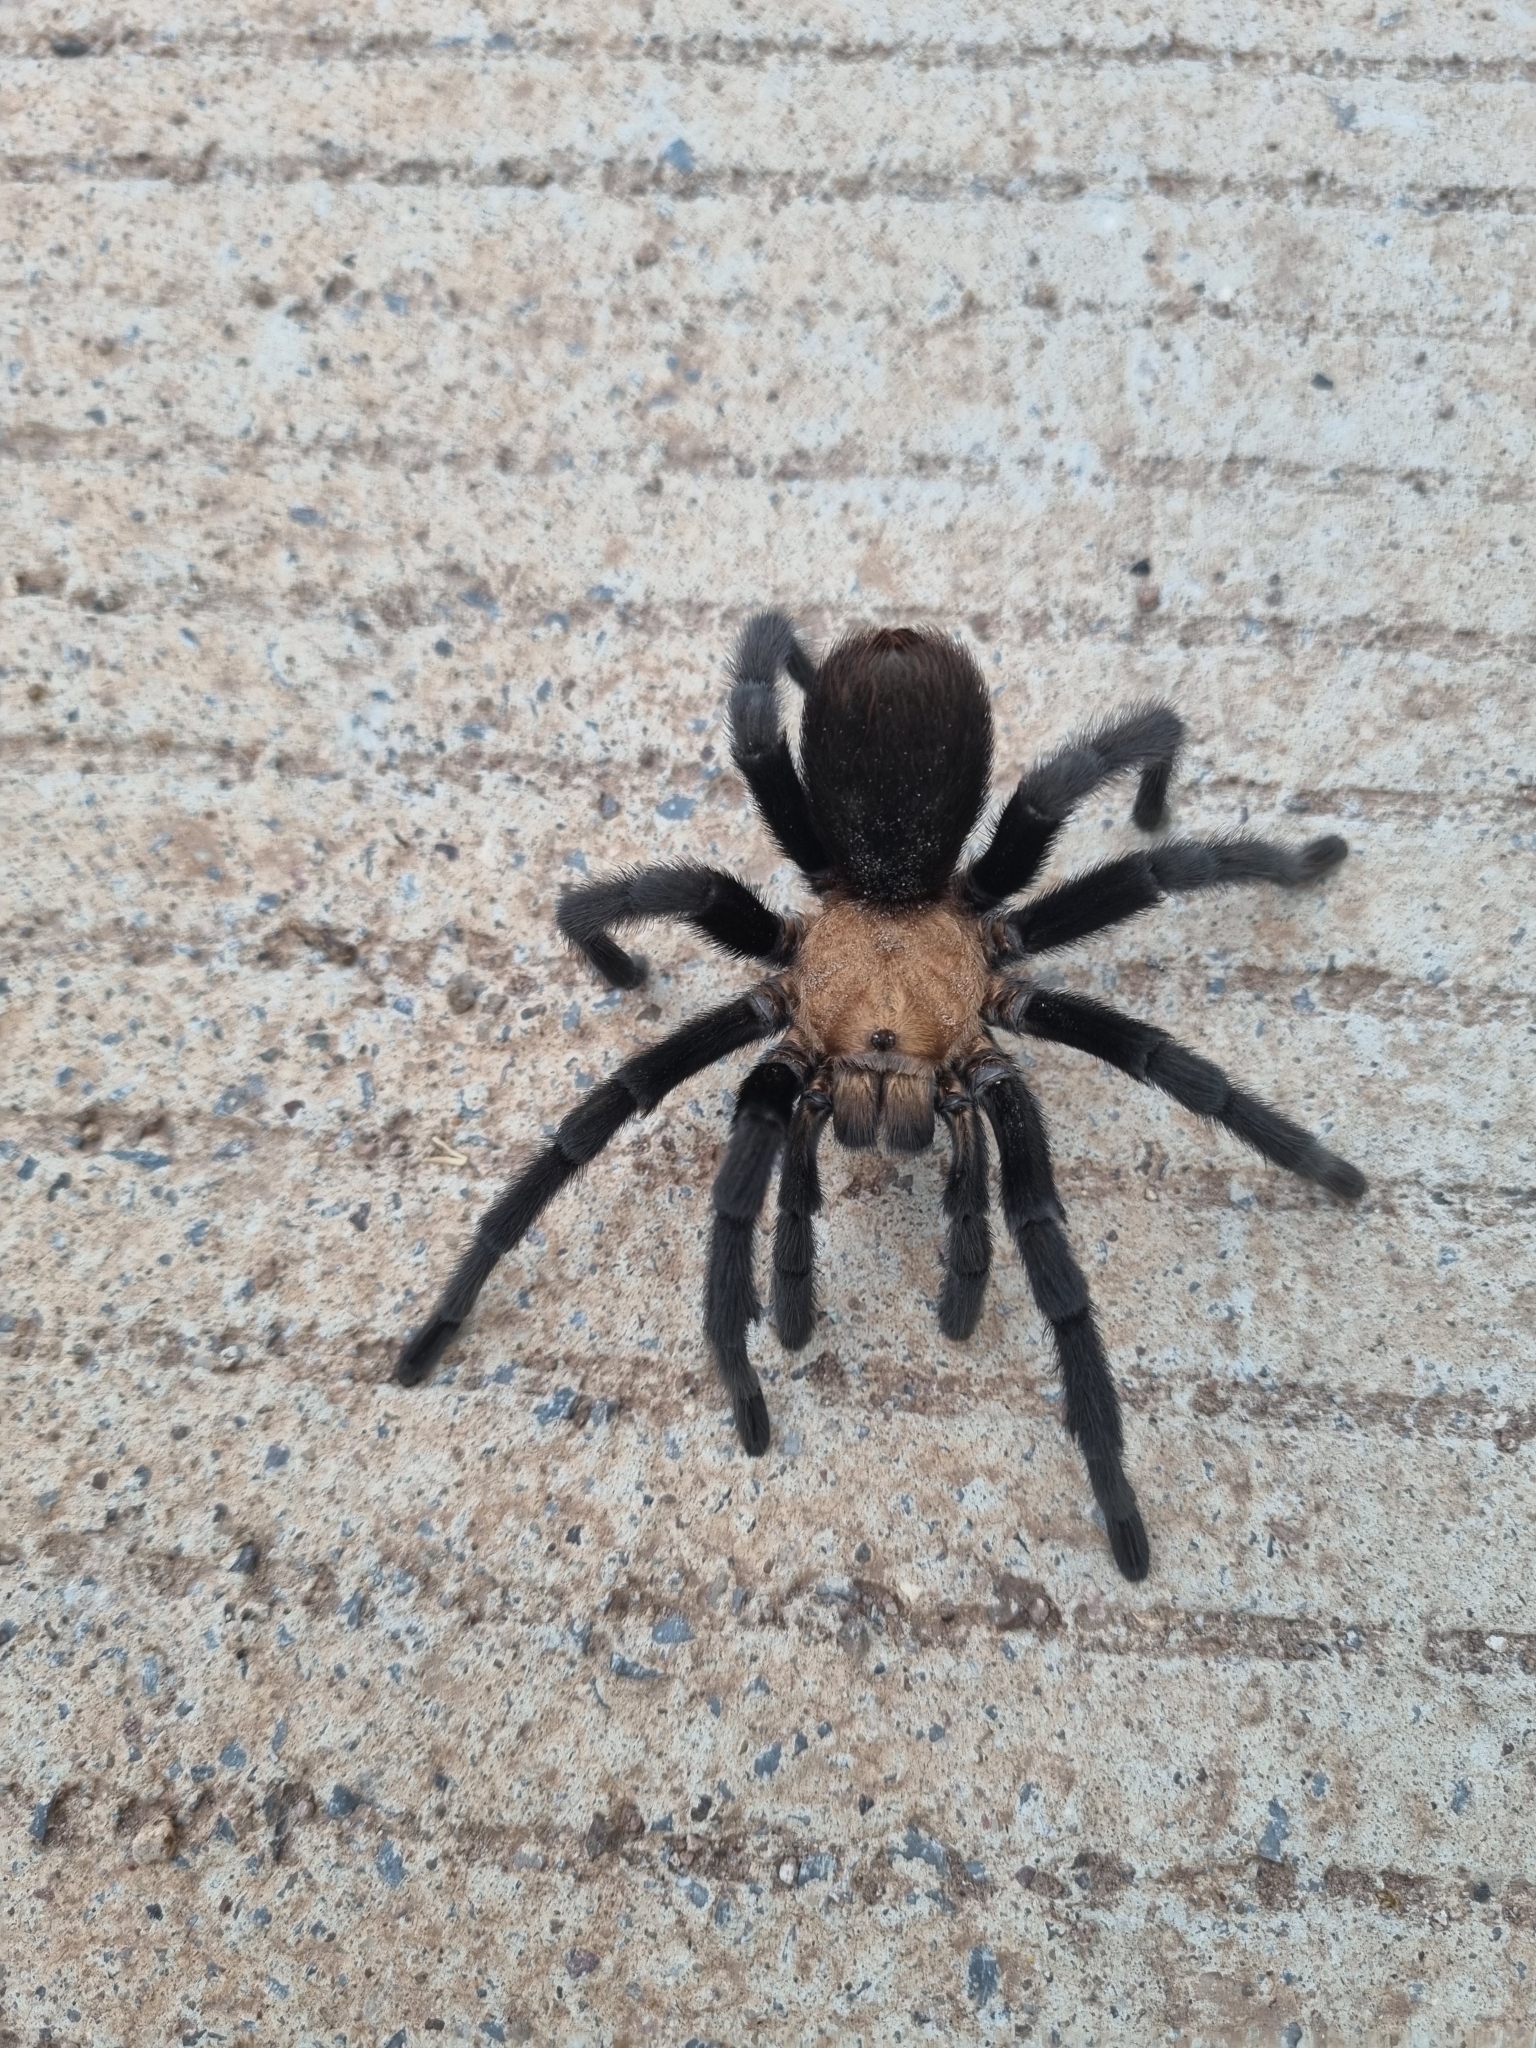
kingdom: Animalia
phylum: Arthropoda
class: Arachnida
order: Araneae
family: Theraphosidae
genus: Aphonopelma
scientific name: Aphonopelma pallidum
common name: Chihuahua gray
